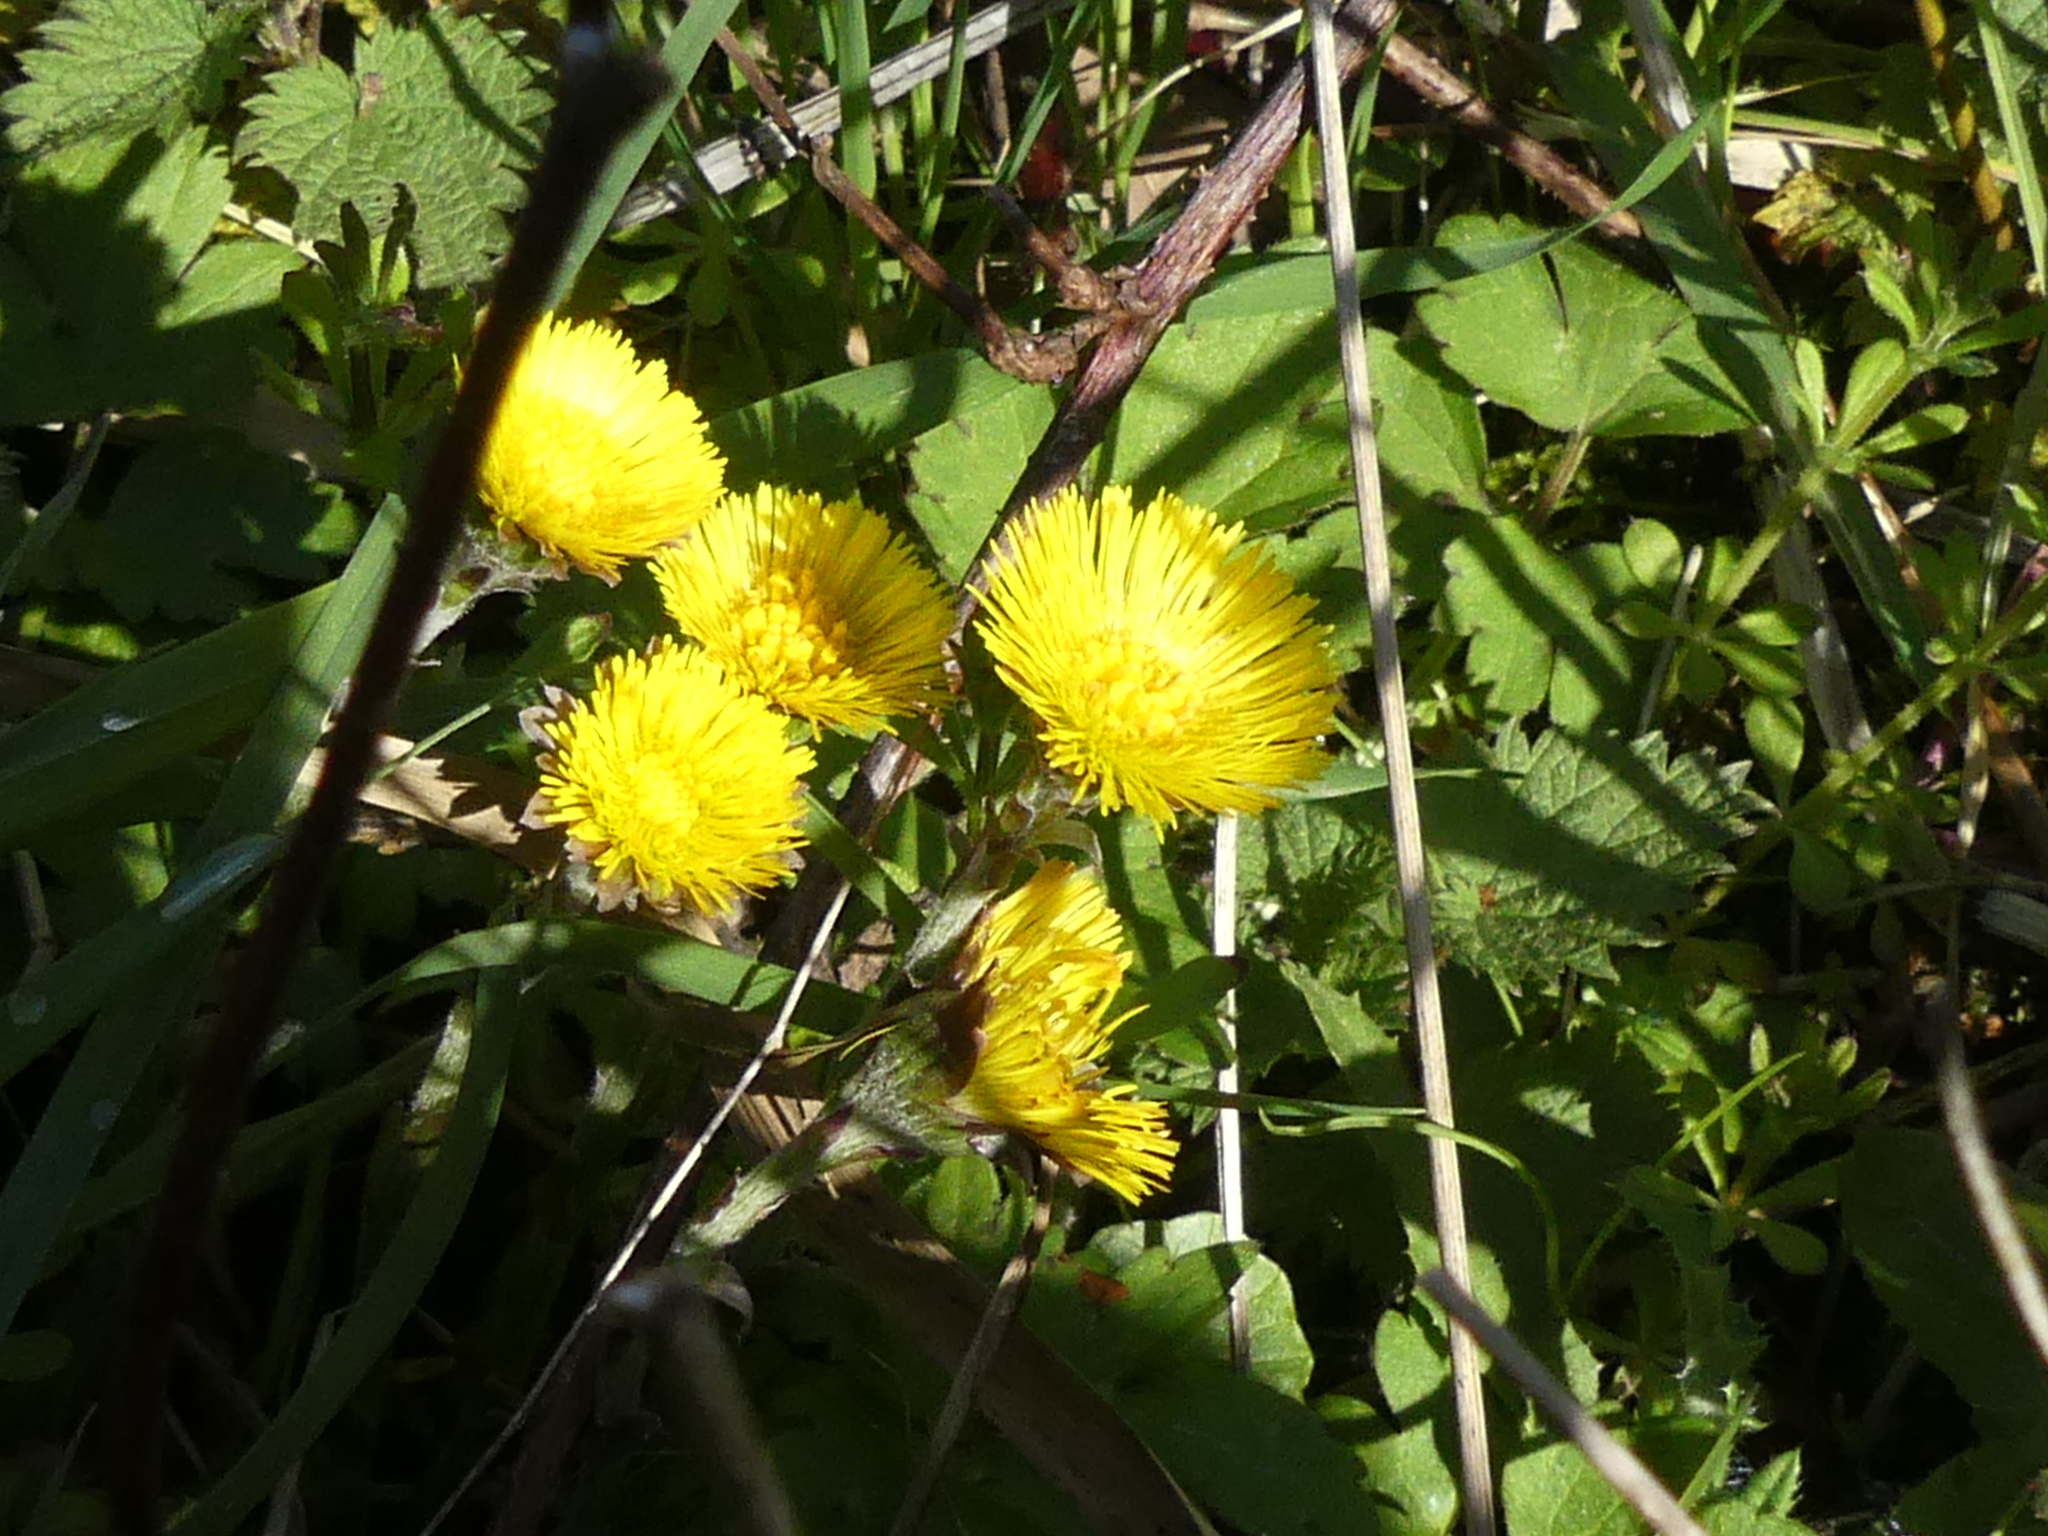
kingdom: Plantae
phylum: Tracheophyta
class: Magnoliopsida
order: Asterales
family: Asteraceae
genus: Tussilago
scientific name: Tussilago farfara
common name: Coltsfoot
